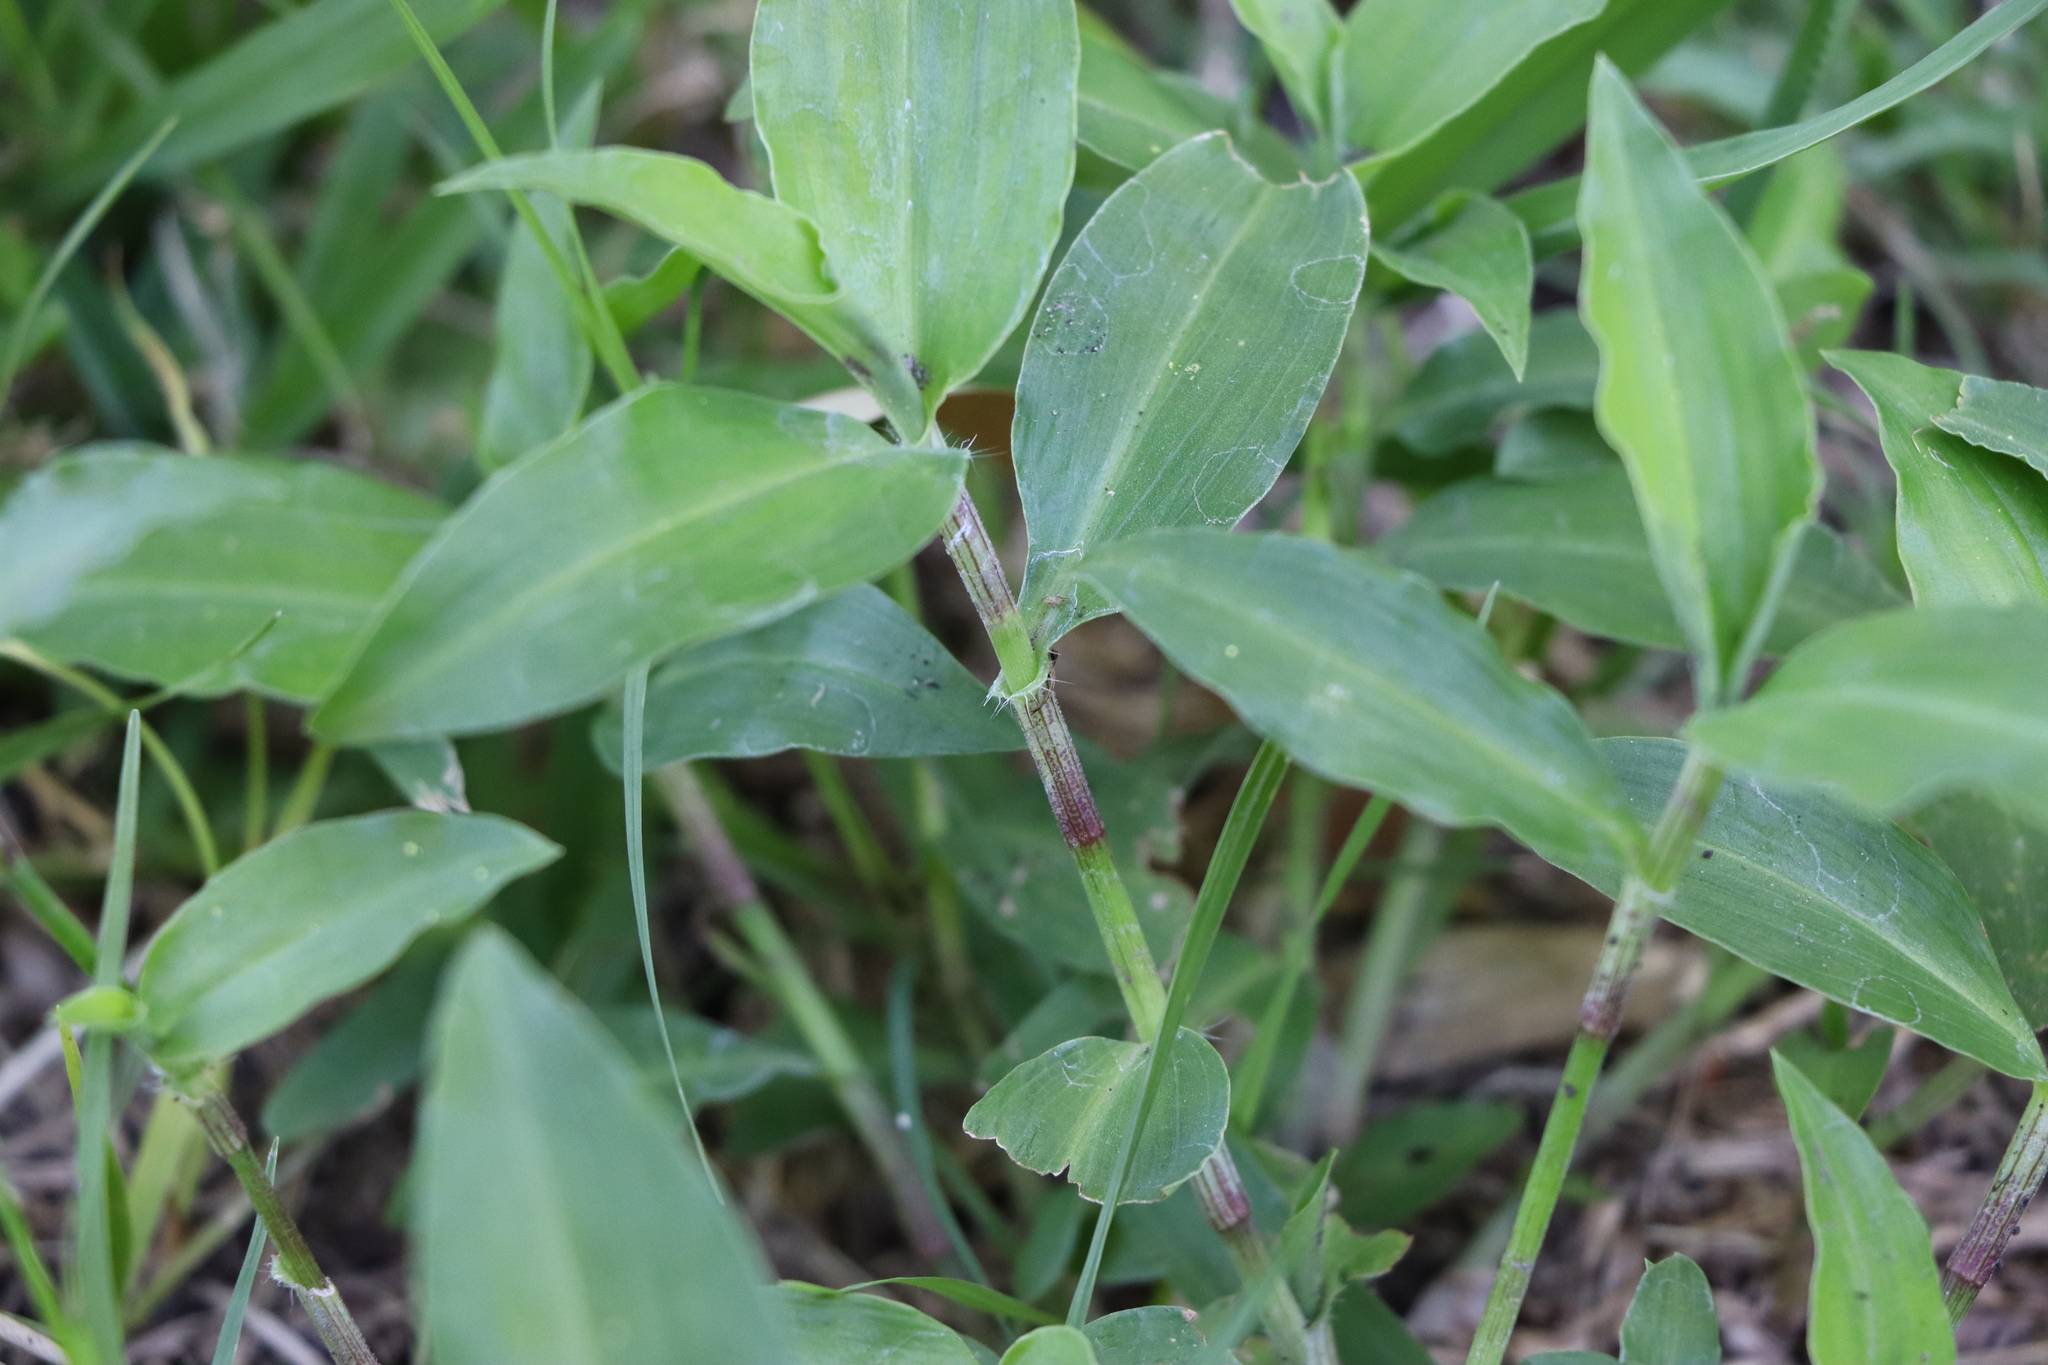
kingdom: Plantae
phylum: Tracheophyta
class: Liliopsida
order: Commelinales
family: Commelinaceae
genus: Commelina
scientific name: Commelina erecta
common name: Blousel blommetjie
